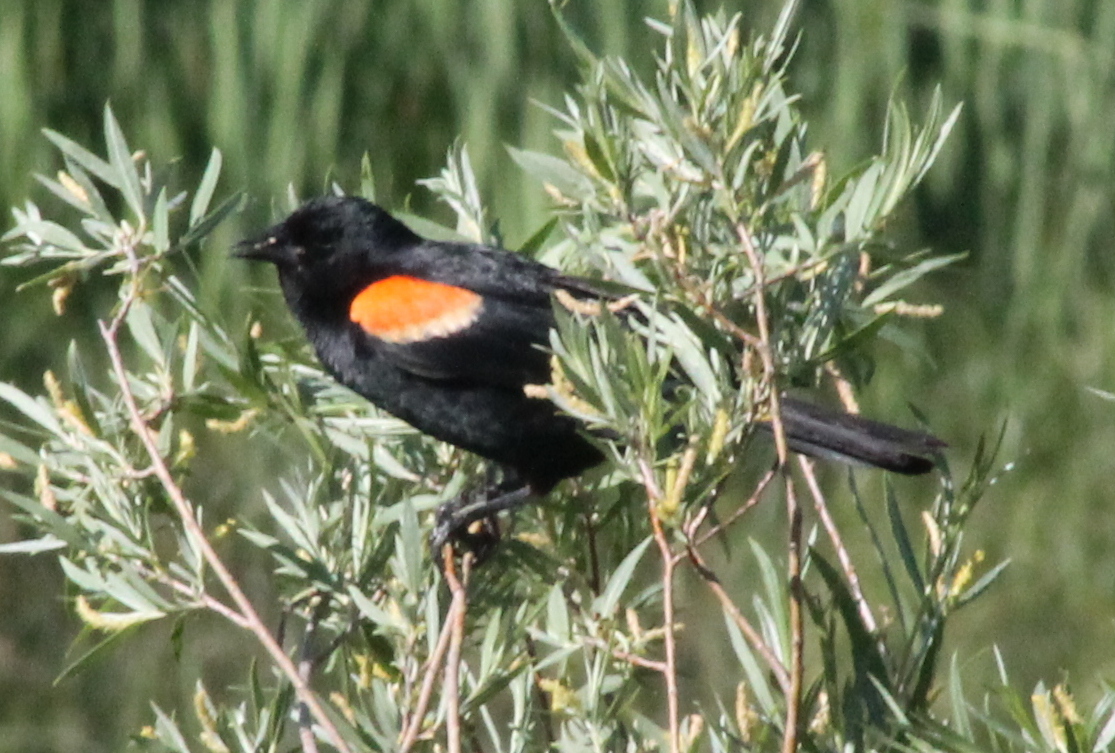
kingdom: Animalia
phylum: Chordata
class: Aves
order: Passeriformes
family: Icteridae
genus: Agelaius
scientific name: Agelaius phoeniceus
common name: Red-winged blackbird
